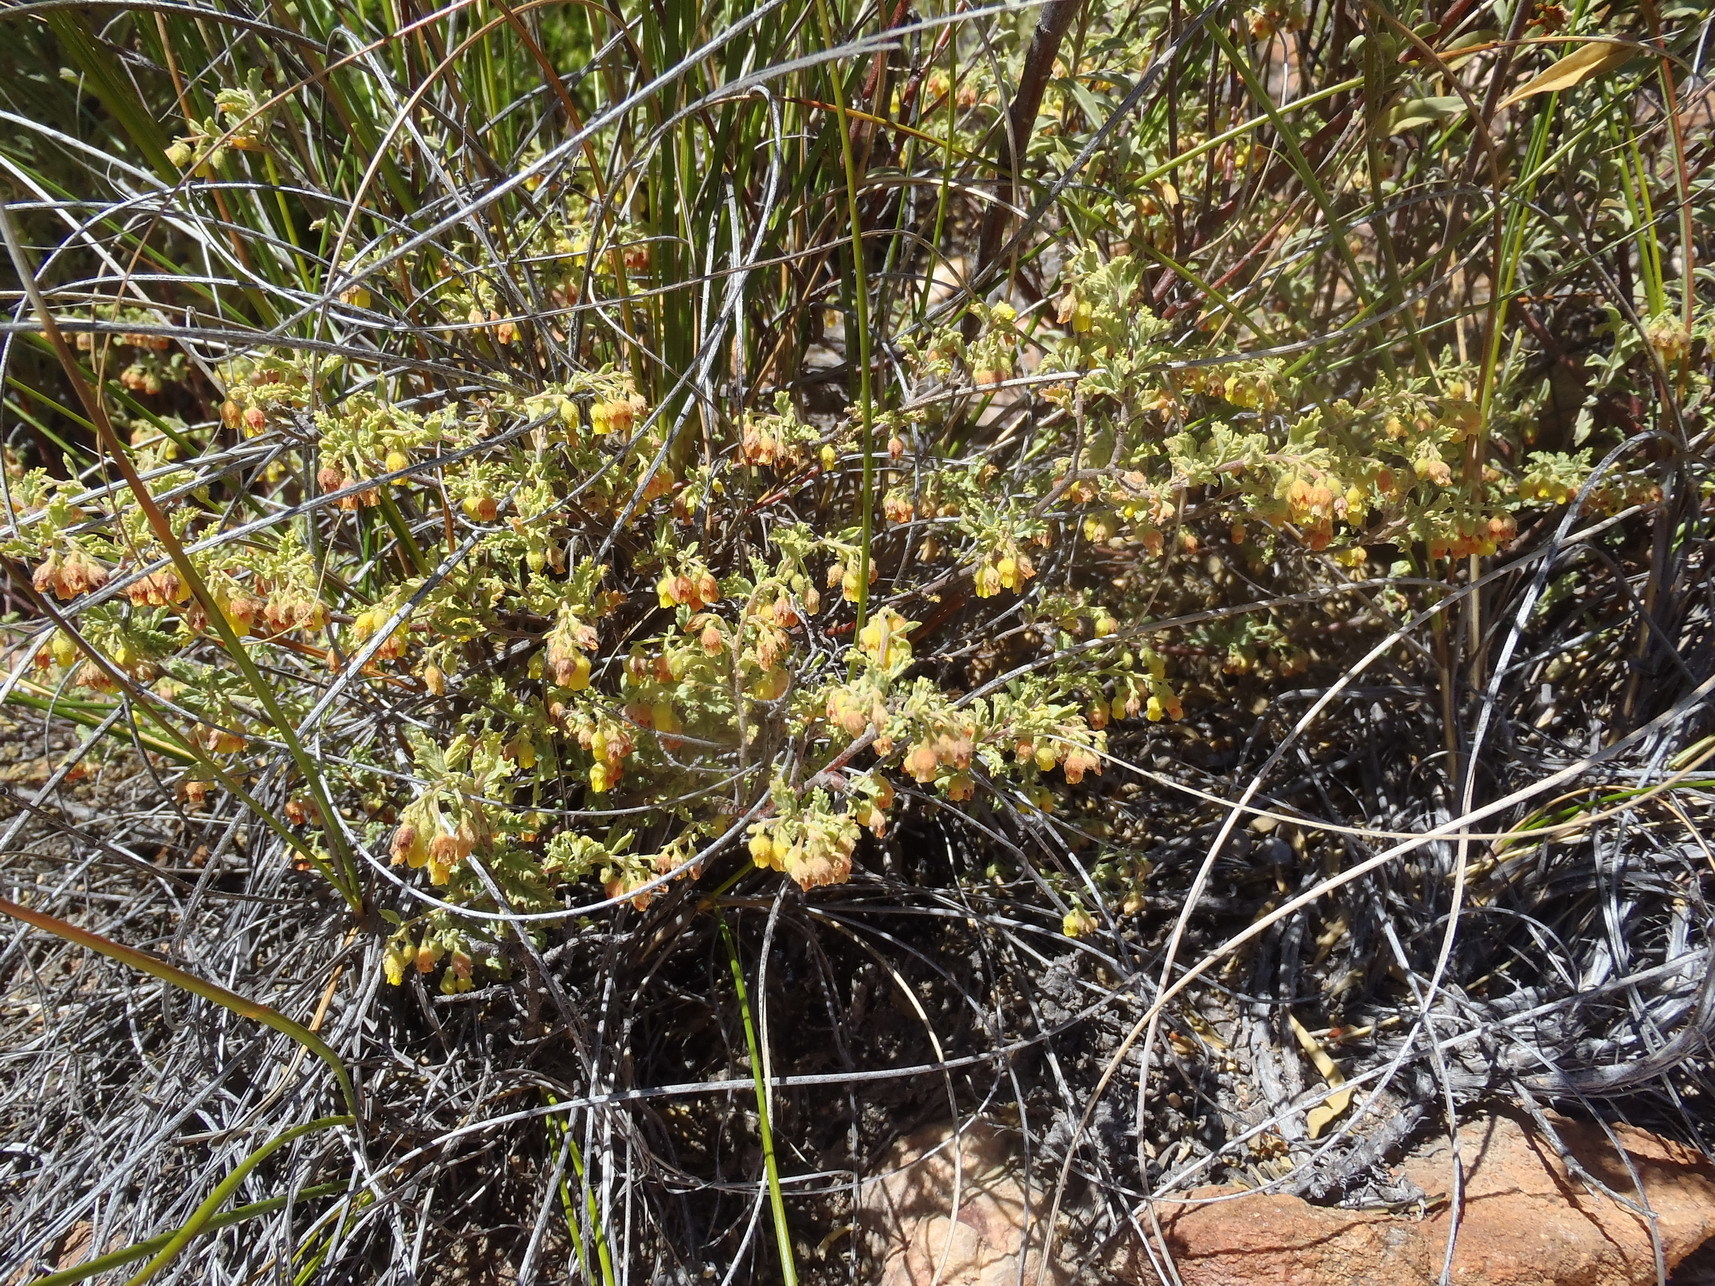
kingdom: Plantae
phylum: Tracheophyta
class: Magnoliopsida
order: Malvales
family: Malvaceae
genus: Hermannia
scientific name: Hermannia holosericea
